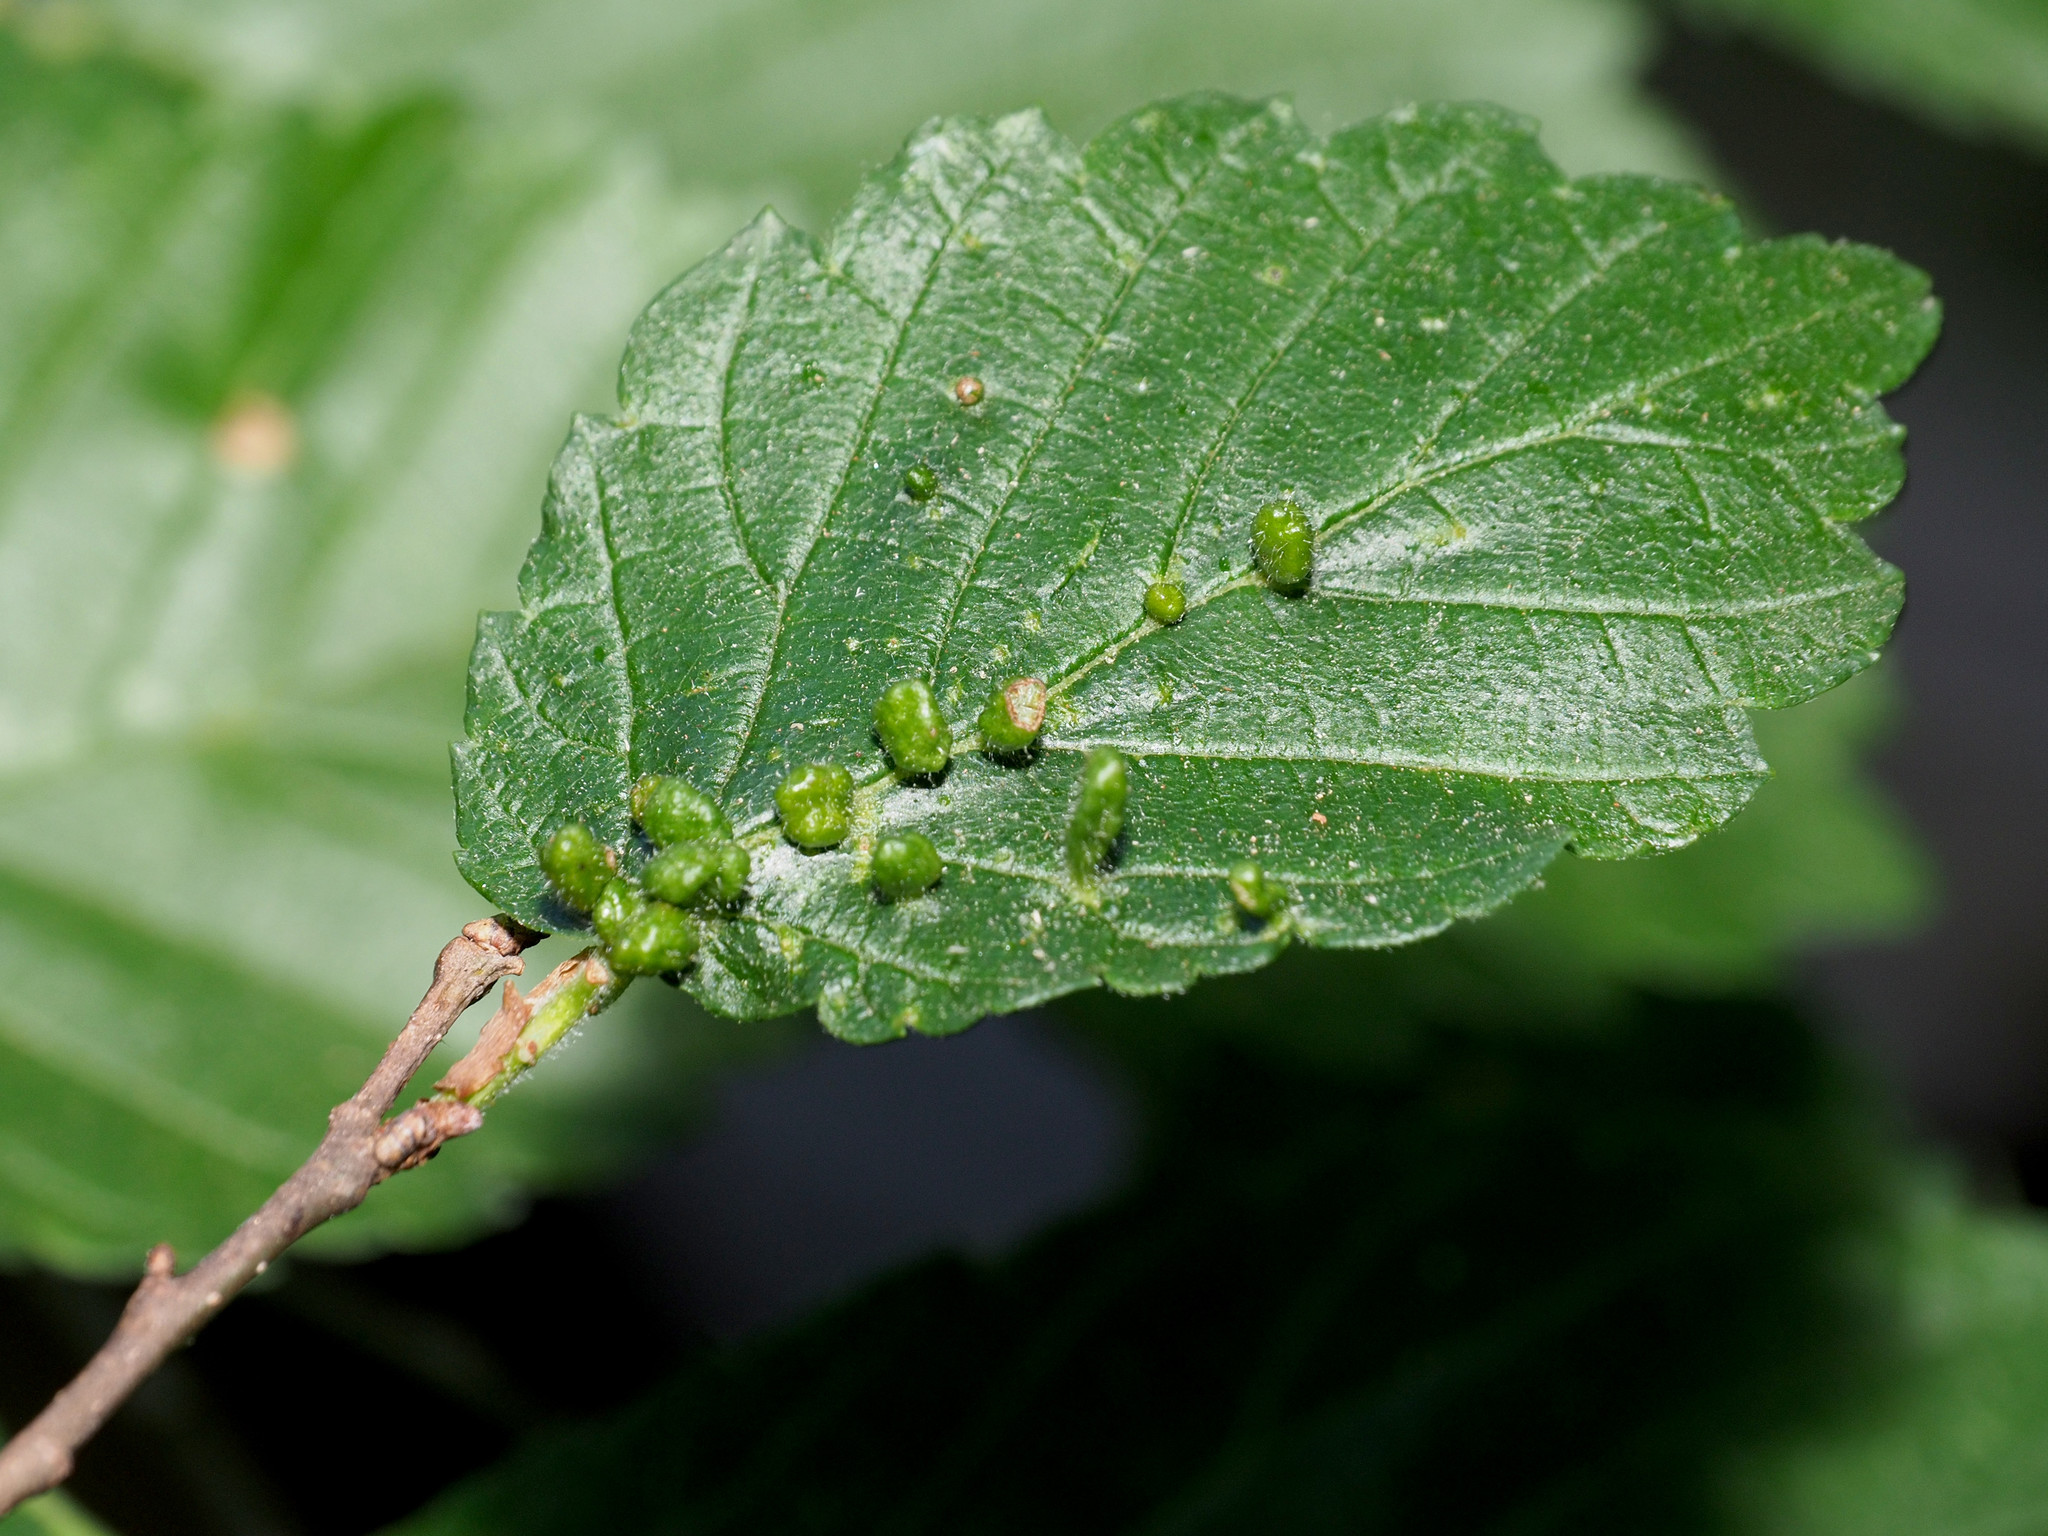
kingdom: Animalia
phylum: Arthropoda
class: Arachnida
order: Trombidiformes
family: Eriophyidae
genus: Aceria
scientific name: Aceria
